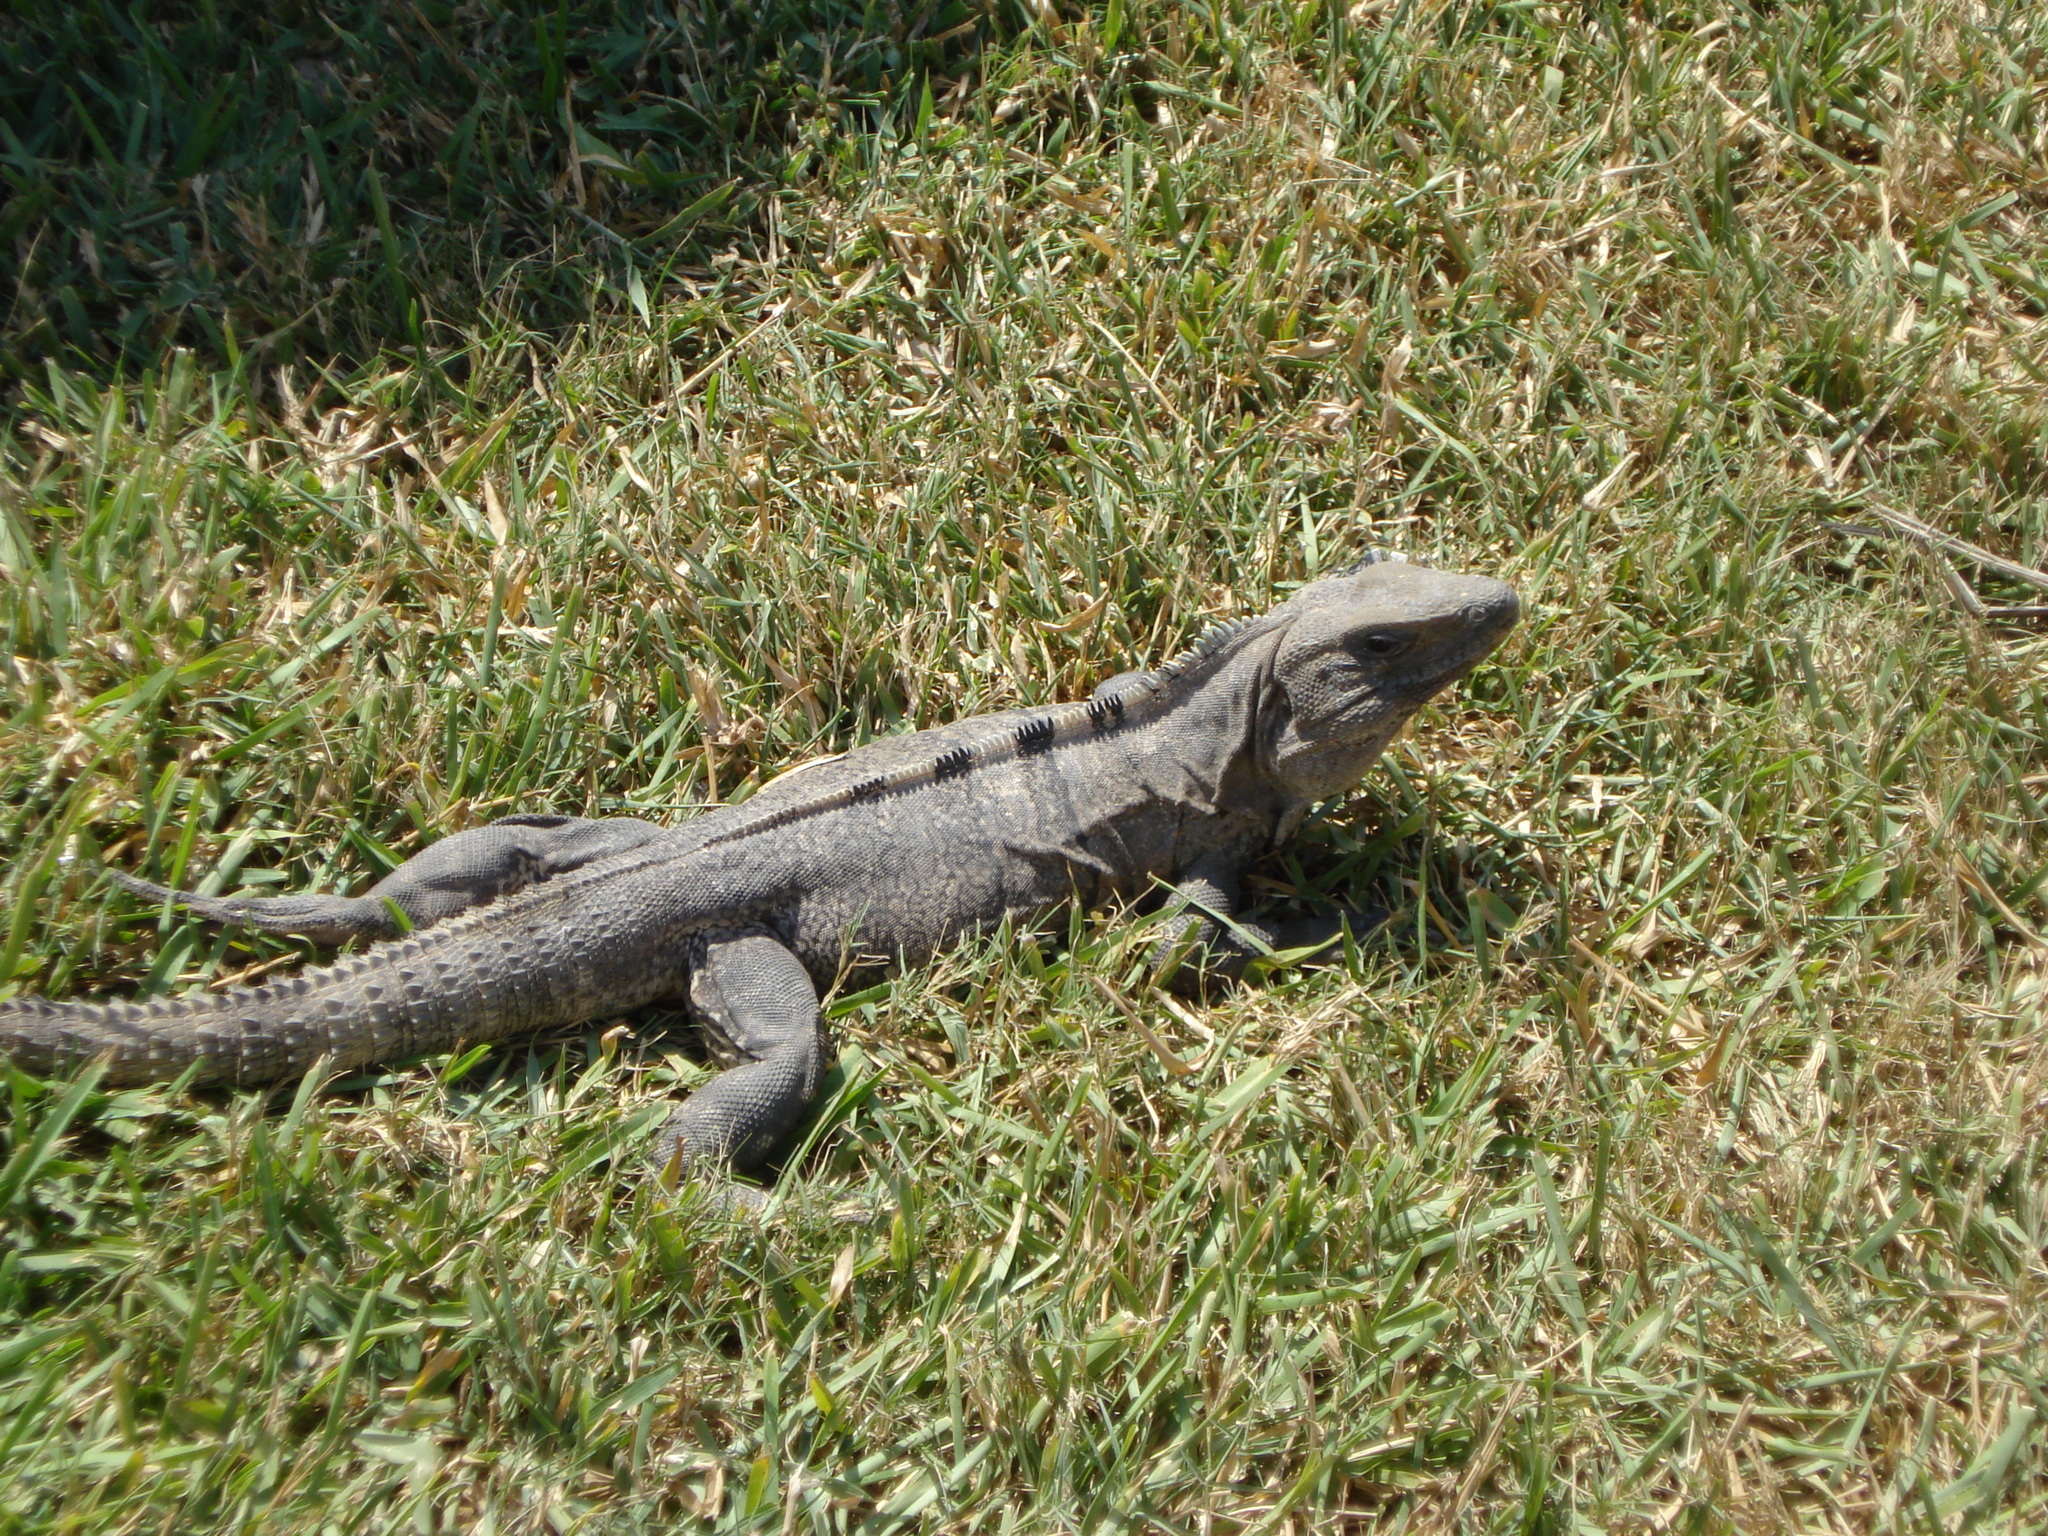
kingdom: Animalia
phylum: Chordata
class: Squamata
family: Iguanidae
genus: Ctenosaura
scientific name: Ctenosaura similis
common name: Black spiny-tailed iguana
